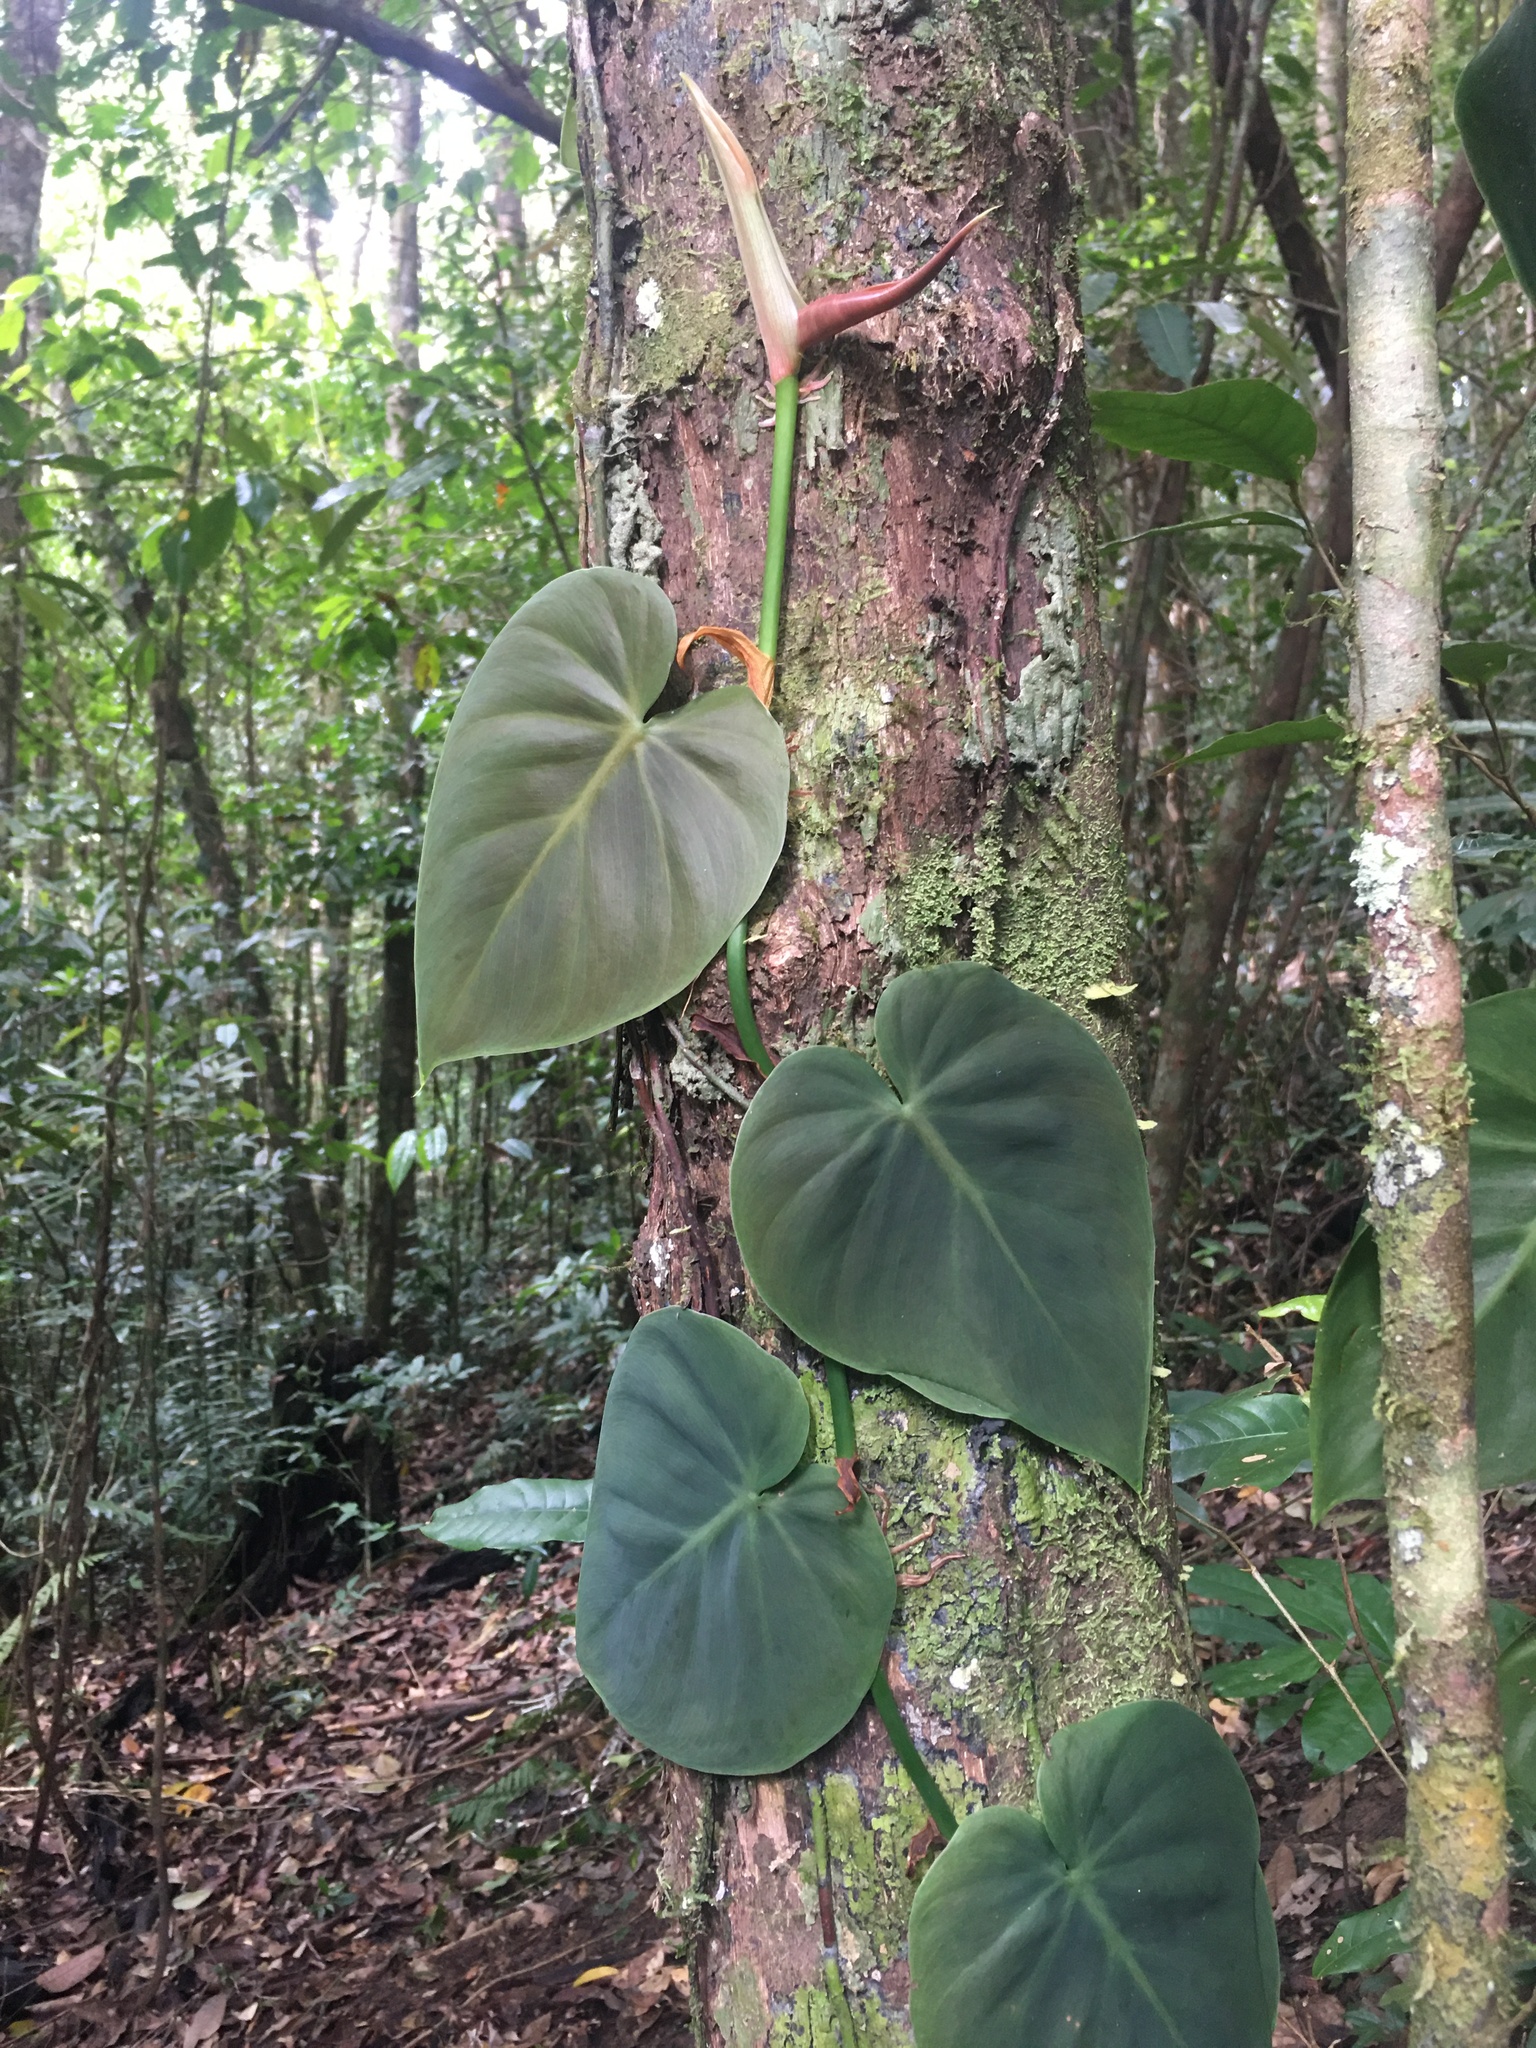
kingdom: Plantae
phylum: Tracheophyta
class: Liliopsida
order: Alismatales
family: Araceae
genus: Philodendron
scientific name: Philodendron hederaceum
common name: Vilevine
